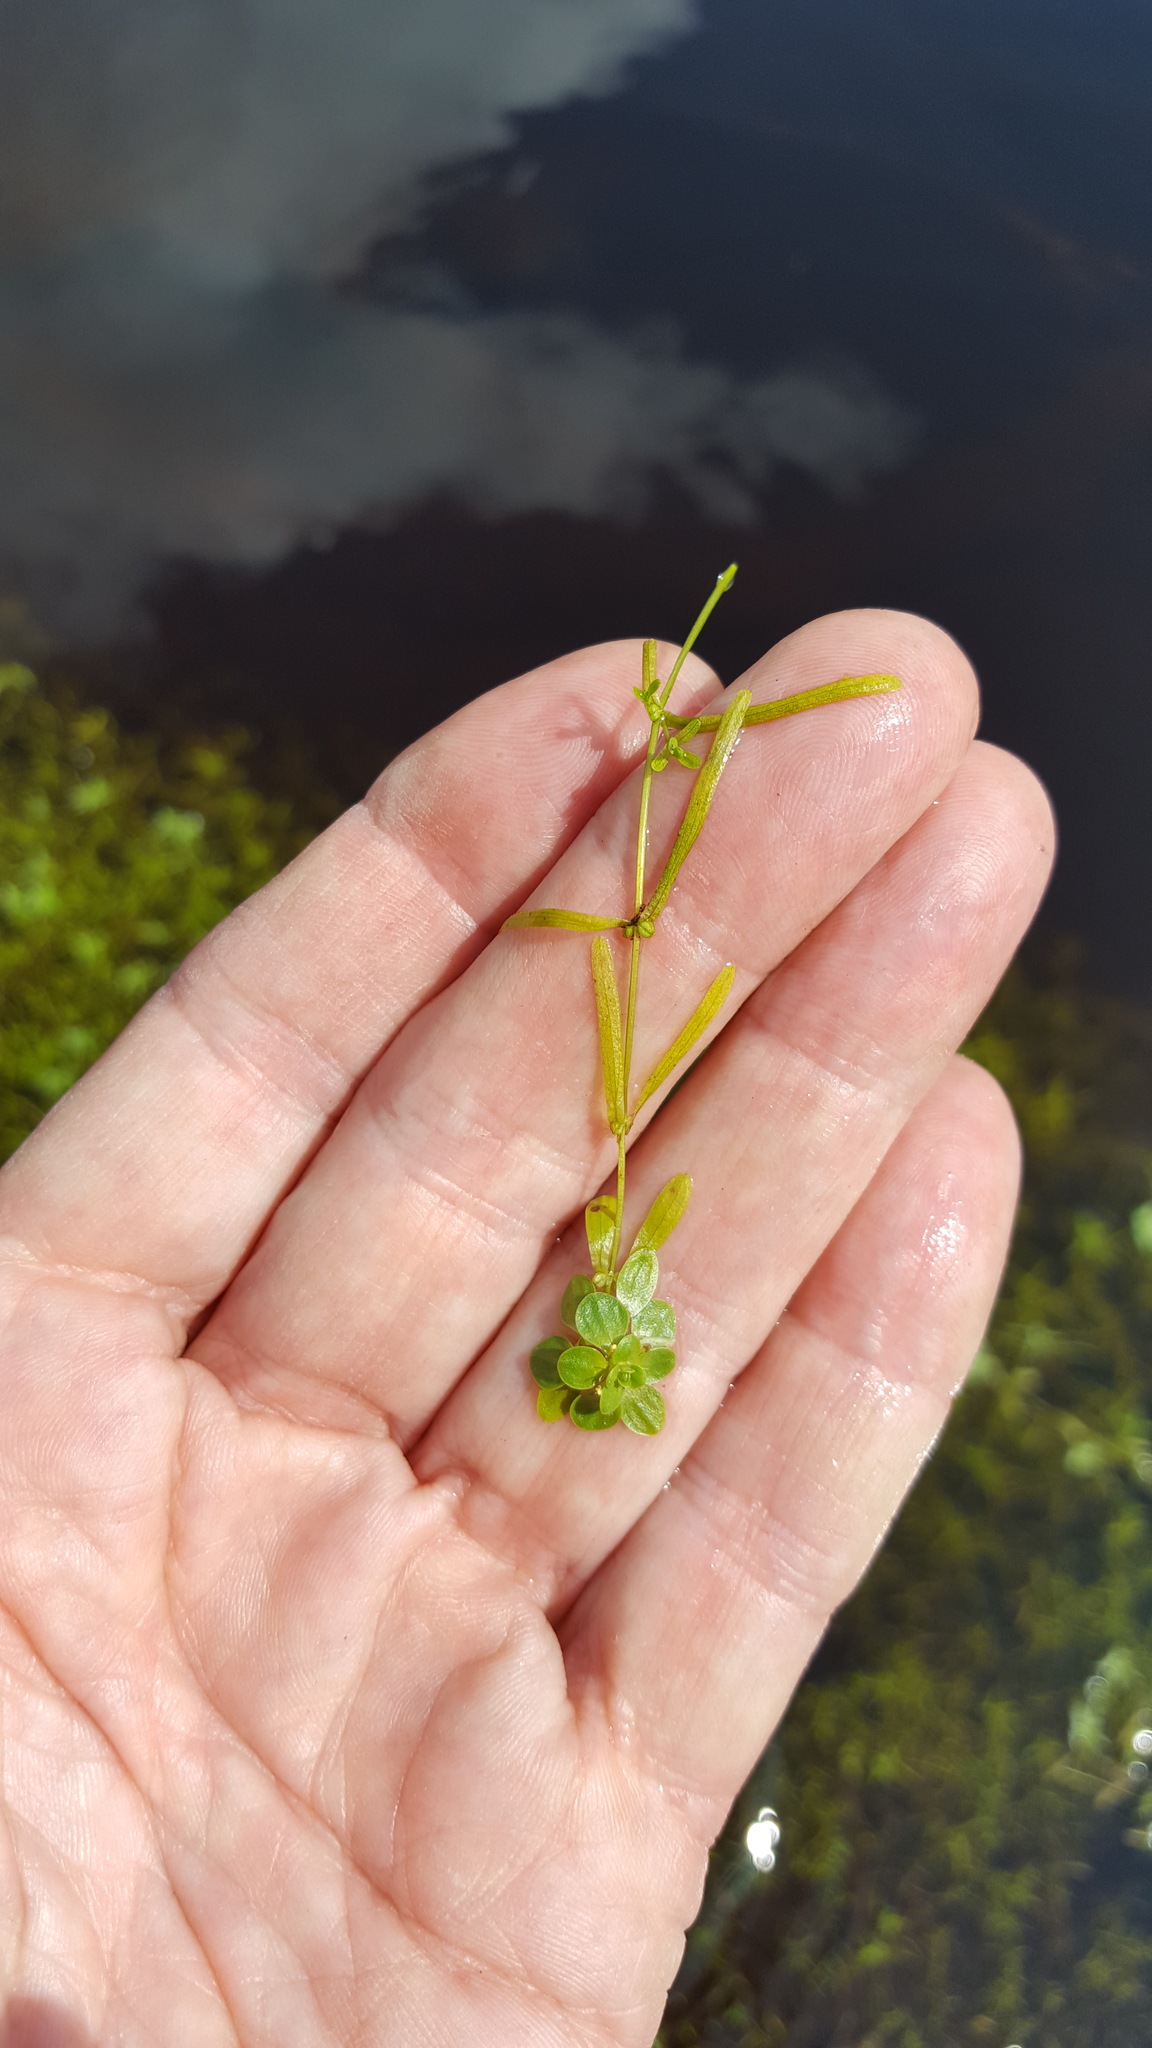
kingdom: Plantae
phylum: Tracheophyta
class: Magnoliopsida
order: Lamiales
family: Plantaginaceae
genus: Callitriche
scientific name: Callitriche palustris
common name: Spring water-starwort
